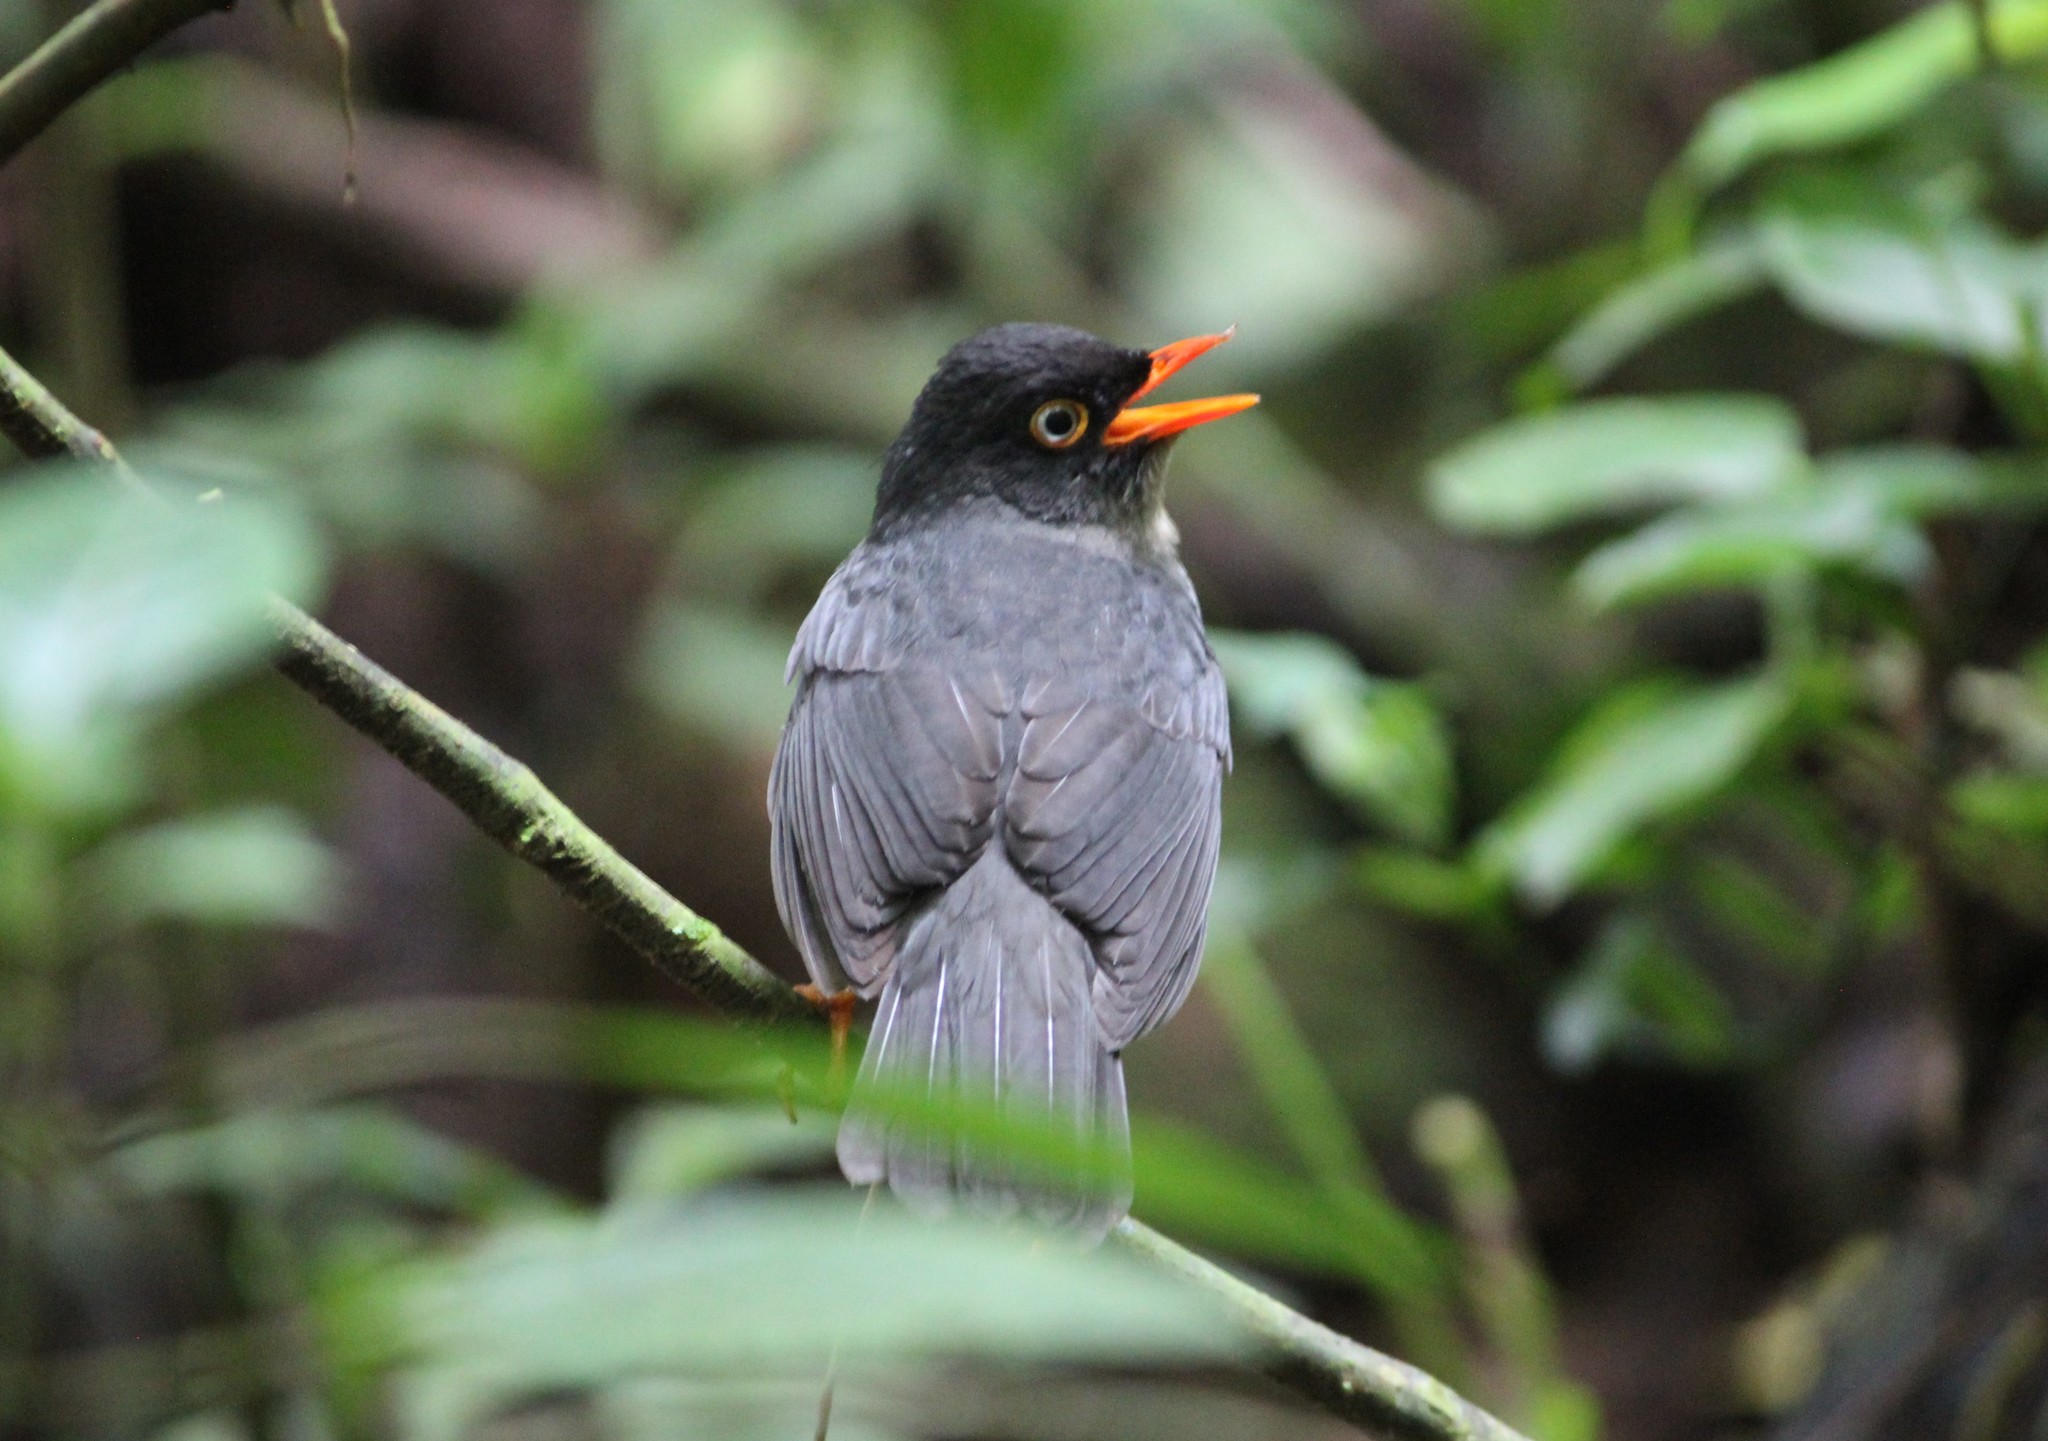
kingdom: Animalia
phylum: Chordata
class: Aves
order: Passeriformes
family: Turdidae
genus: Catharus
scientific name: Catharus fuscater
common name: Slaty-backed nightingale-thrush
